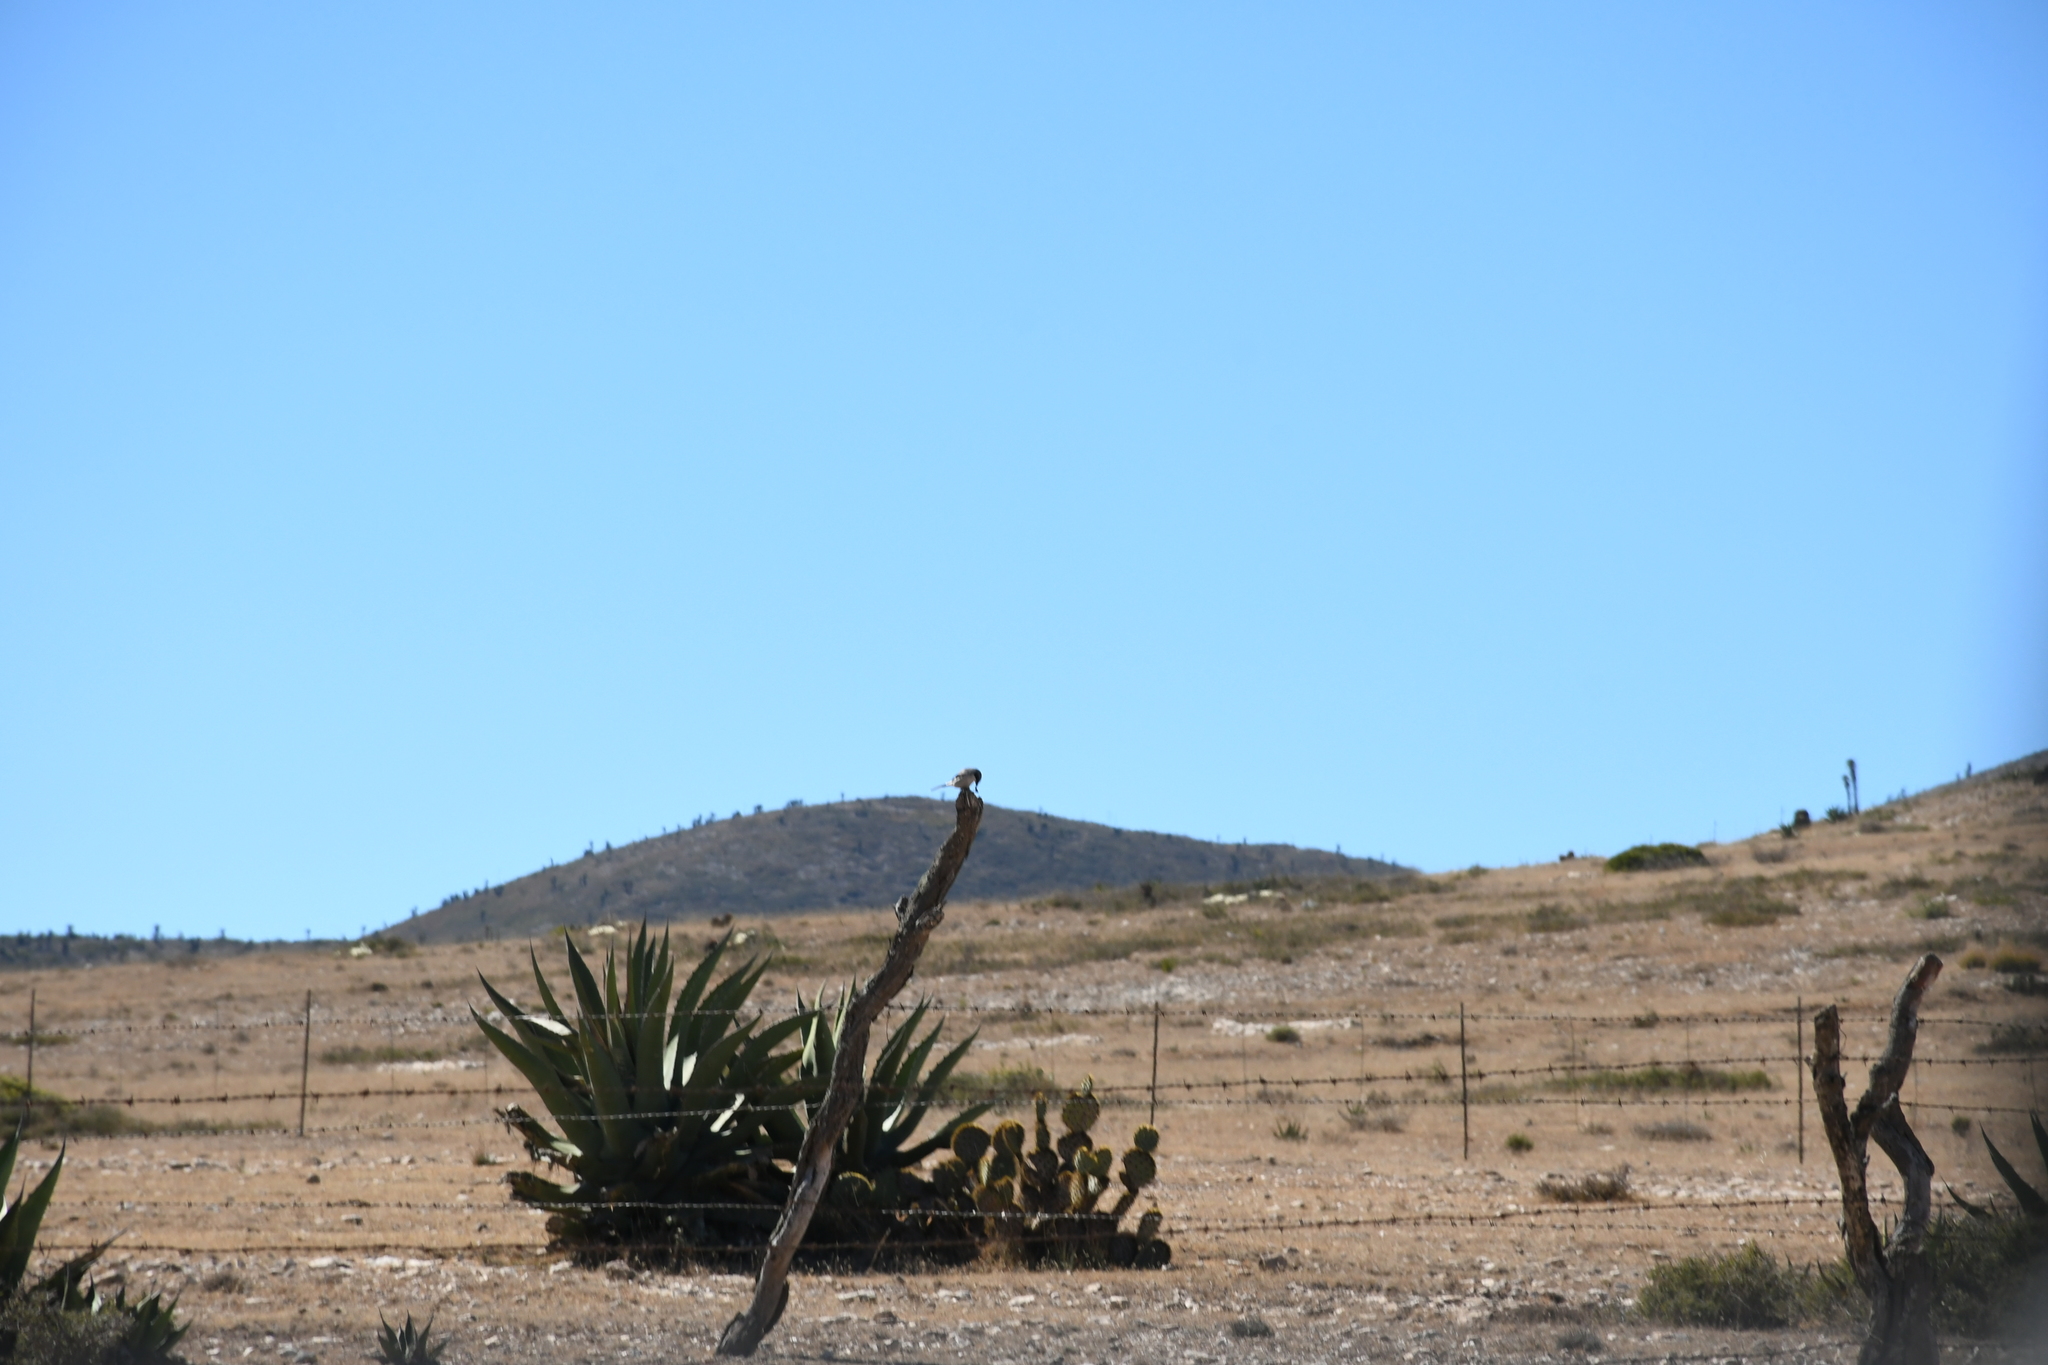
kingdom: Animalia
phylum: Chordata
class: Aves
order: Passeriformes
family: Laniidae
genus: Lanius
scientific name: Lanius ludovicianus
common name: Loggerhead shrike
